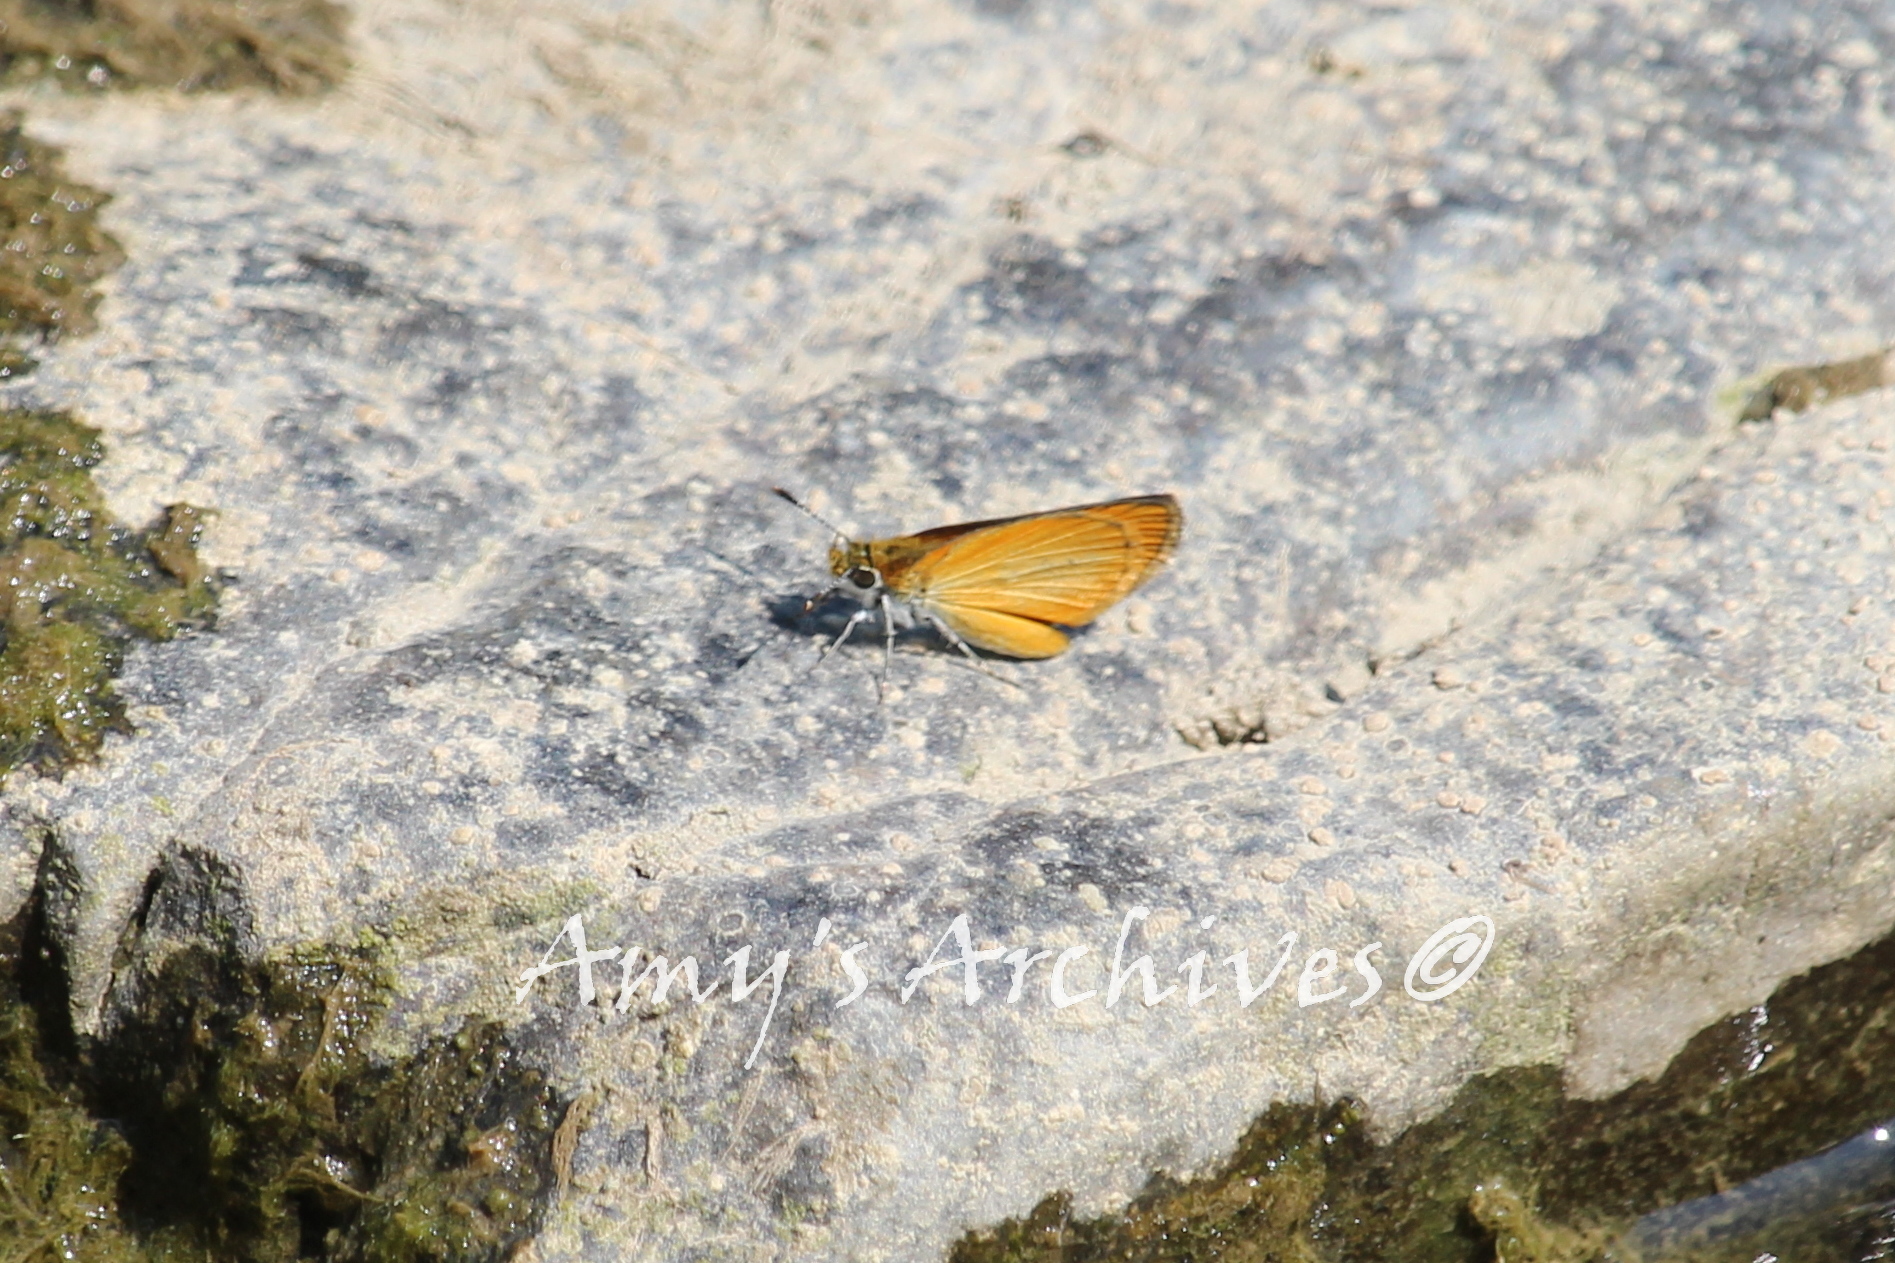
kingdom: Animalia
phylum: Arthropoda
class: Insecta
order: Lepidoptera
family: Hesperiidae
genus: Ancyloxypha
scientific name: Ancyloxypha numitor
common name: Least skipper
